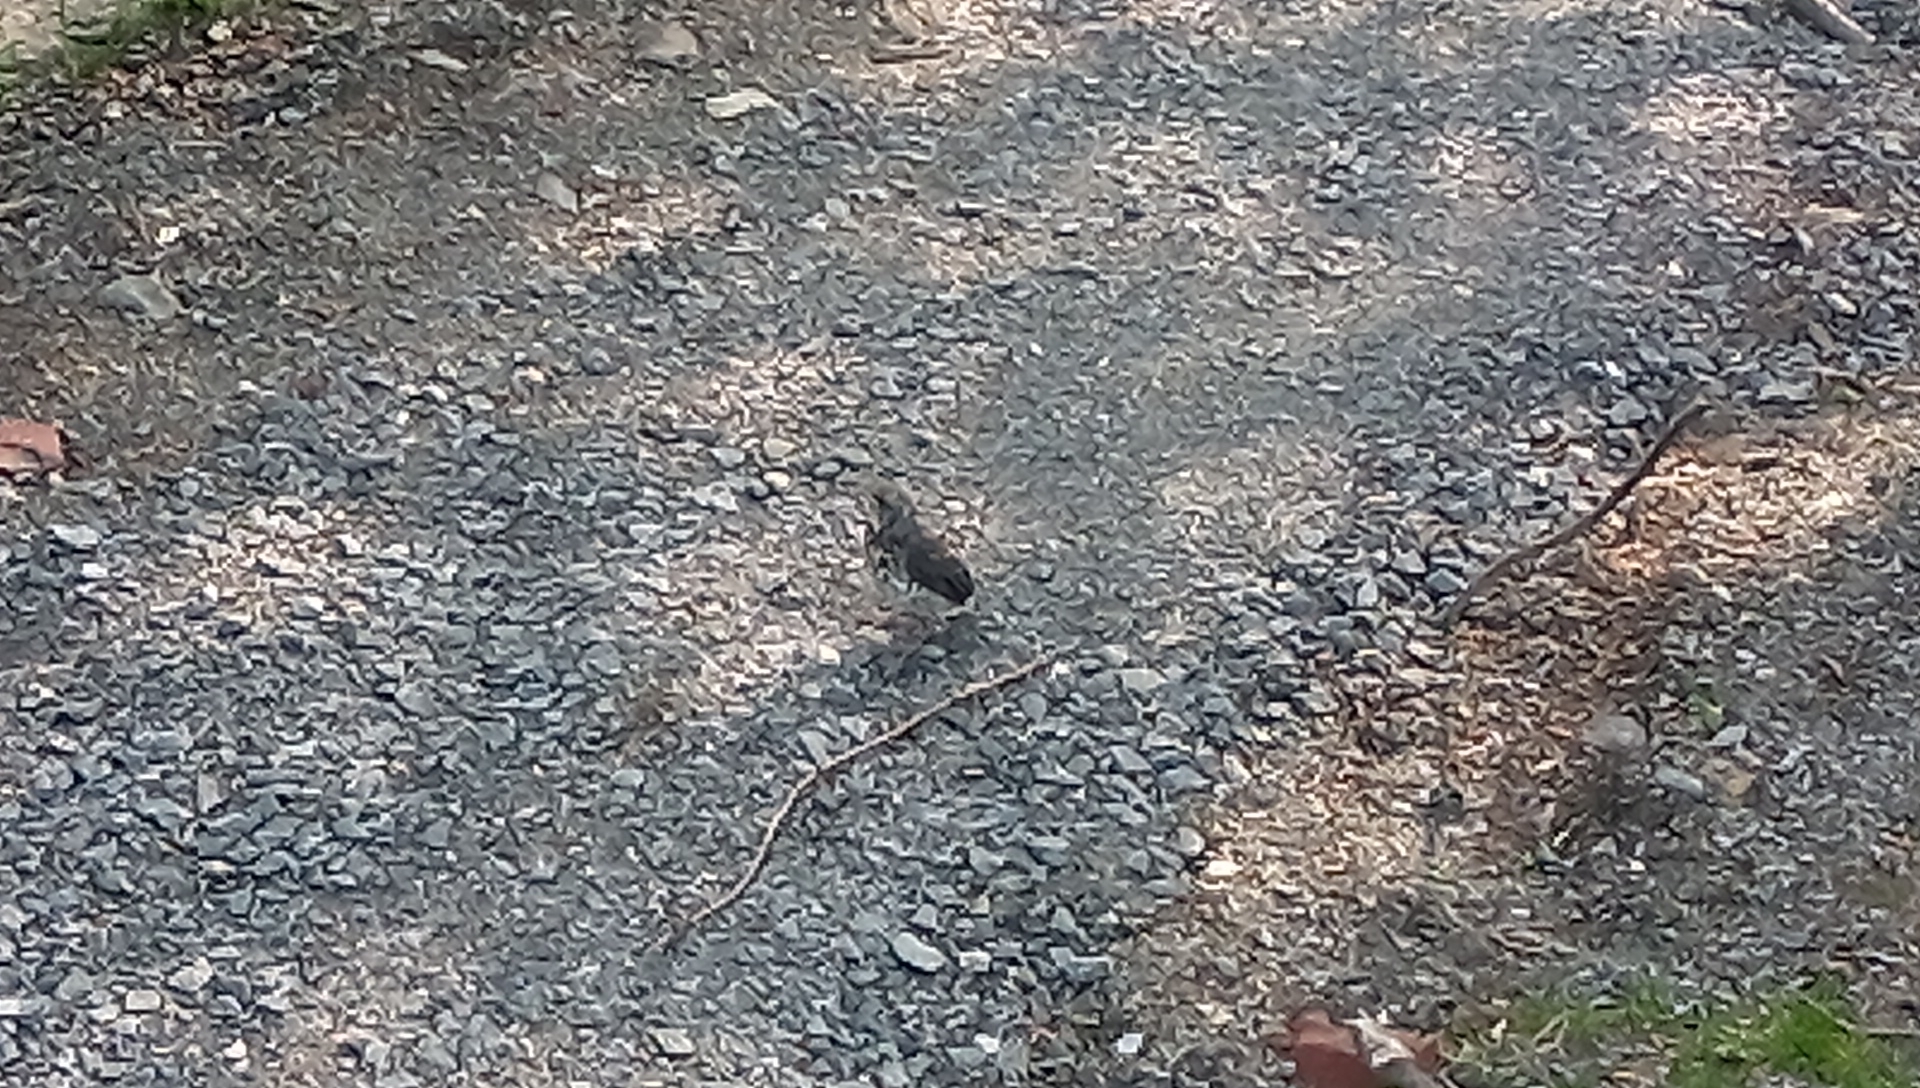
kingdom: Animalia
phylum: Chordata
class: Aves
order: Passeriformes
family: Turdidae
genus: Turdus
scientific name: Turdus pilaris
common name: Fieldfare
